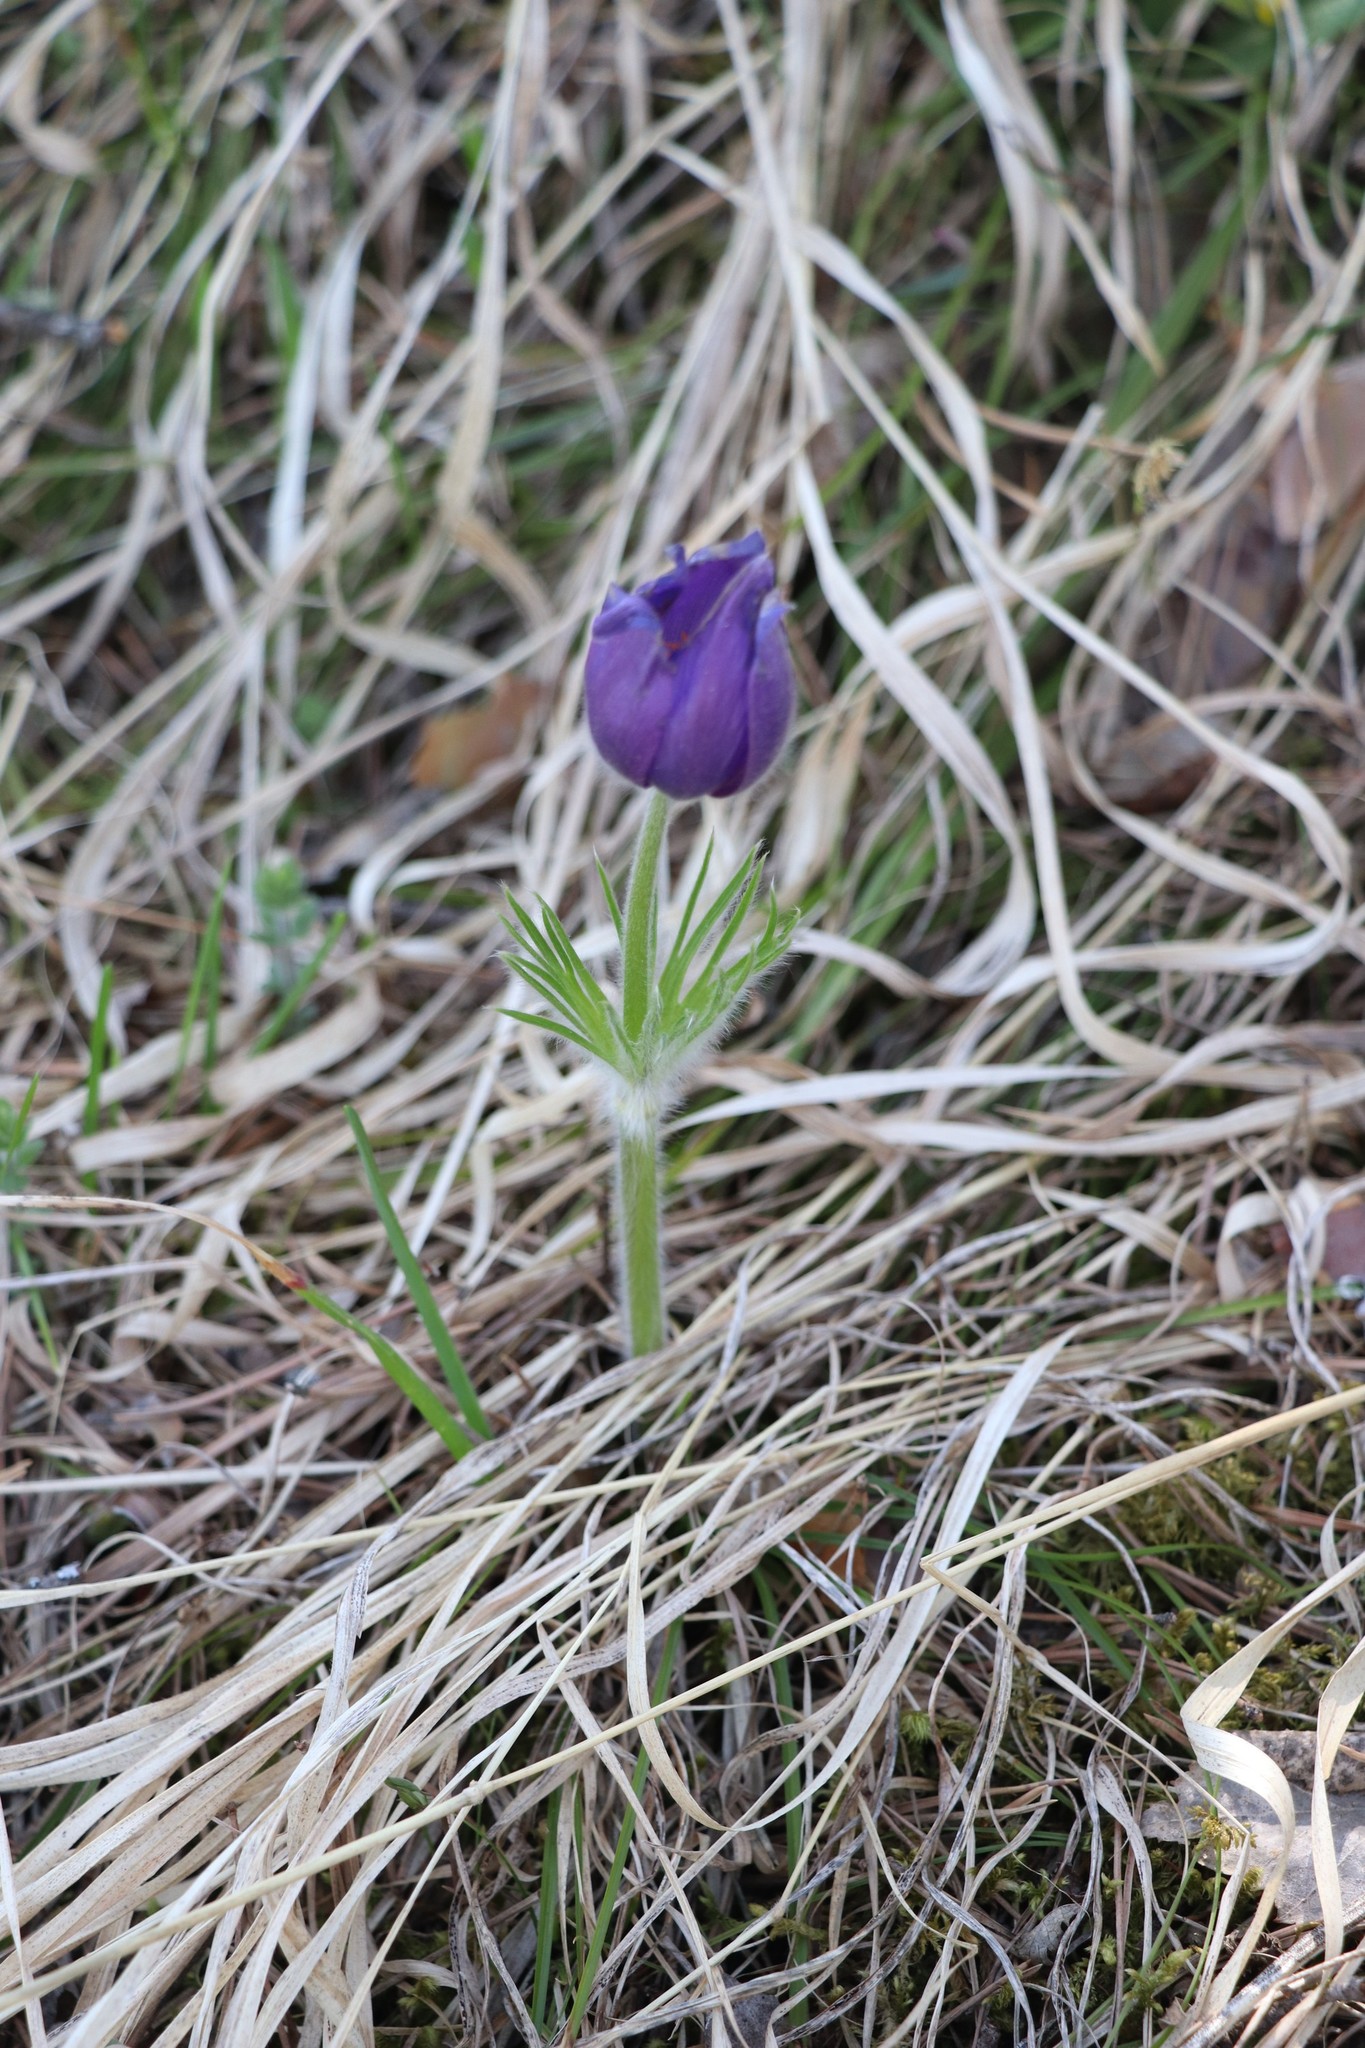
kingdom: Plantae
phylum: Tracheophyta
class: Magnoliopsida
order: Ranunculales
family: Ranunculaceae
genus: Pulsatilla
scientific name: Pulsatilla patens
